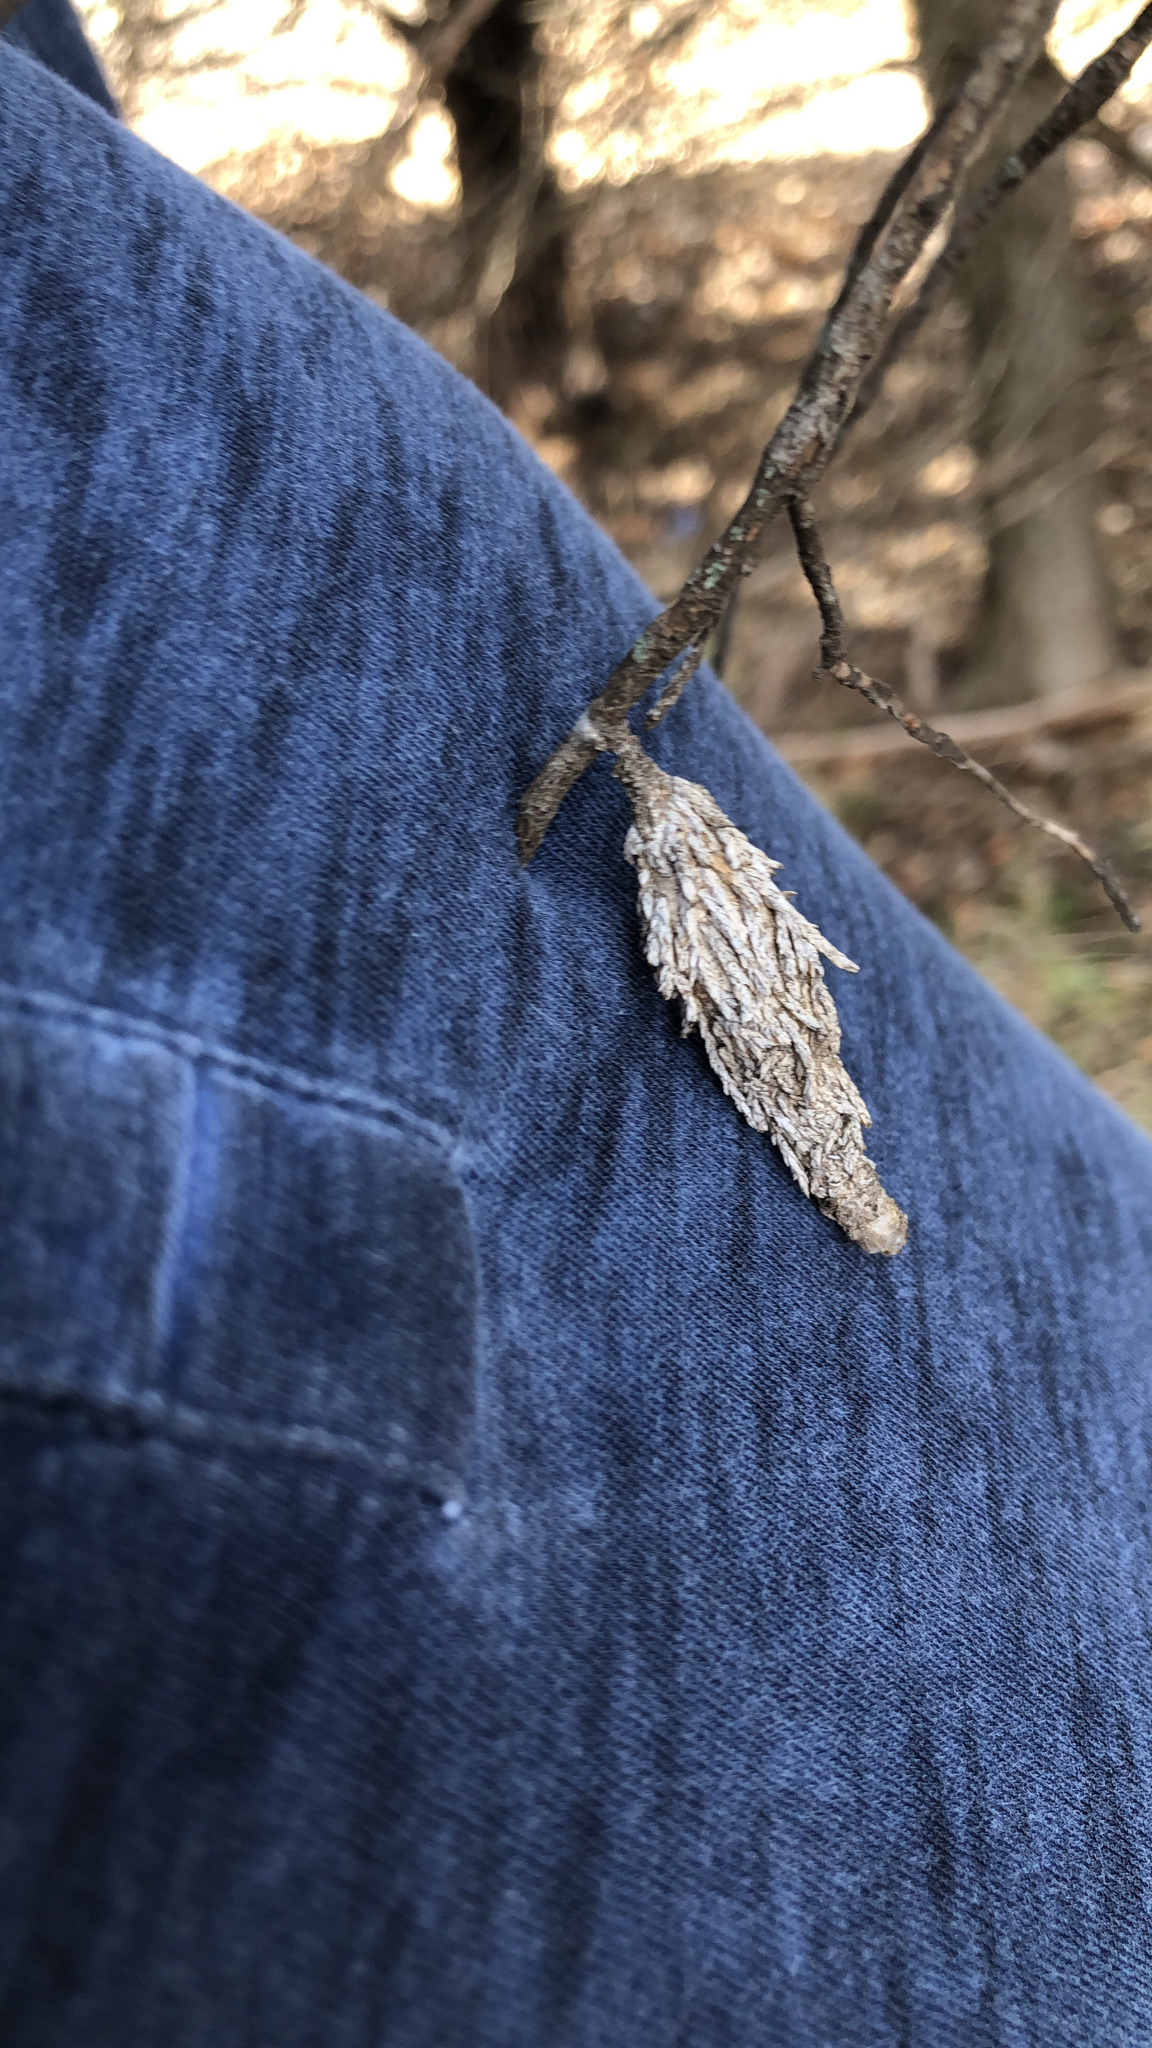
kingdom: Animalia
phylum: Arthropoda
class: Insecta
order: Lepidoptera
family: Psychidae
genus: Thyridopteryx
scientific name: Thyridopteryx ephemeraeformis
